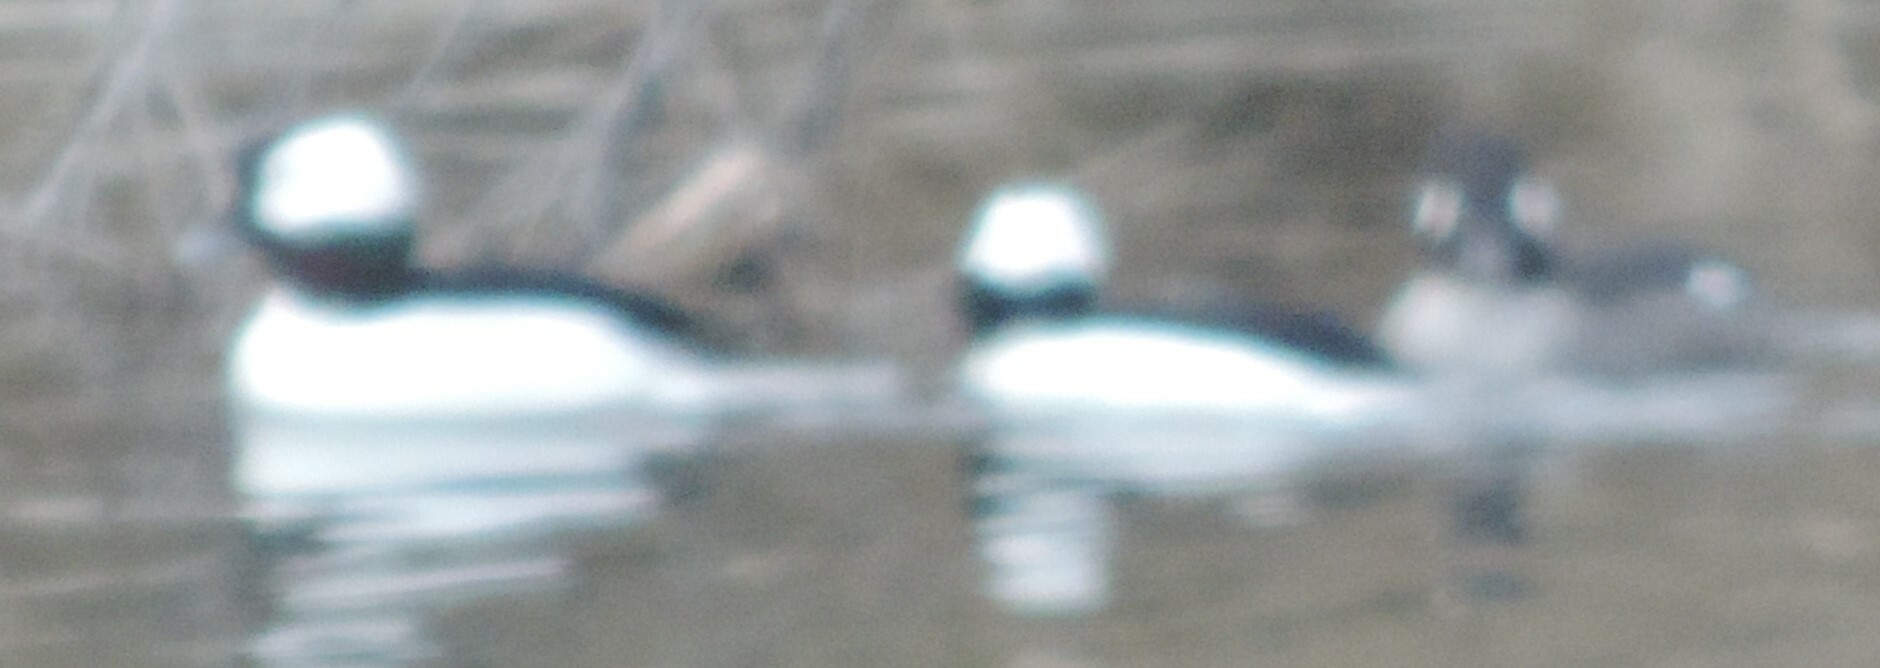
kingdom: Animalia
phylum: Chordata
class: Aves
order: Anseriformes
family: Anatidae
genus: Bucephala
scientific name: Bucephala albeola
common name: Bufflehead
